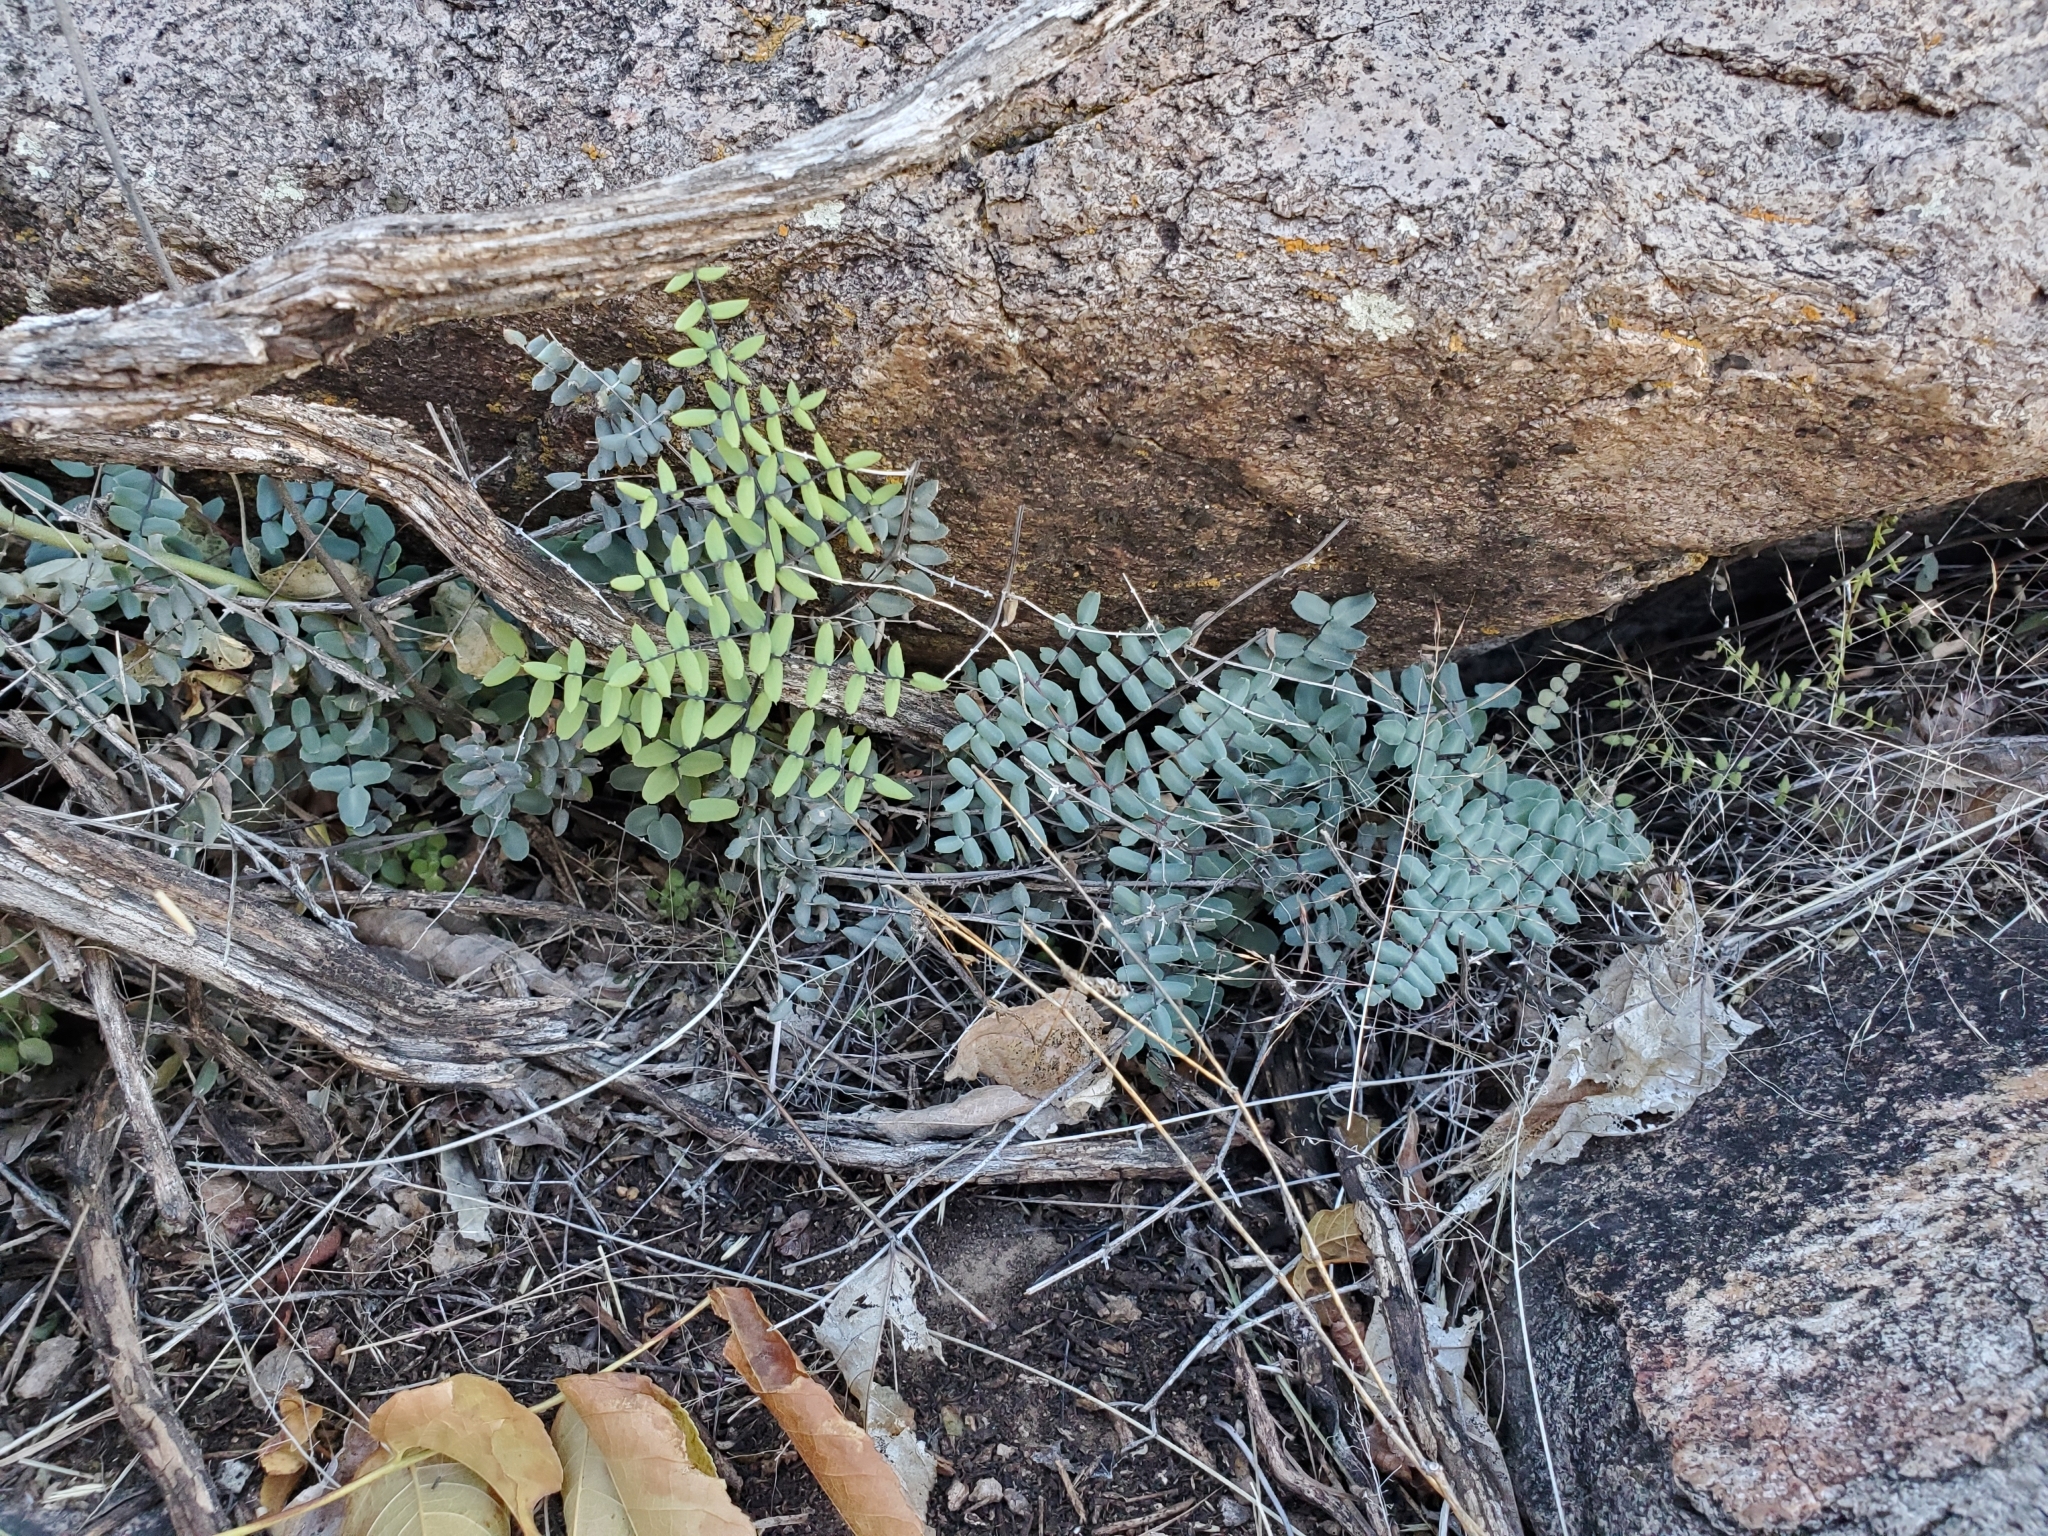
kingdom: Plantae
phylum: Tracheophyta
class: Polypodiopsida
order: Polypodiales
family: Pteridaceae
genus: Pellaea
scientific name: Pellaea truncata
